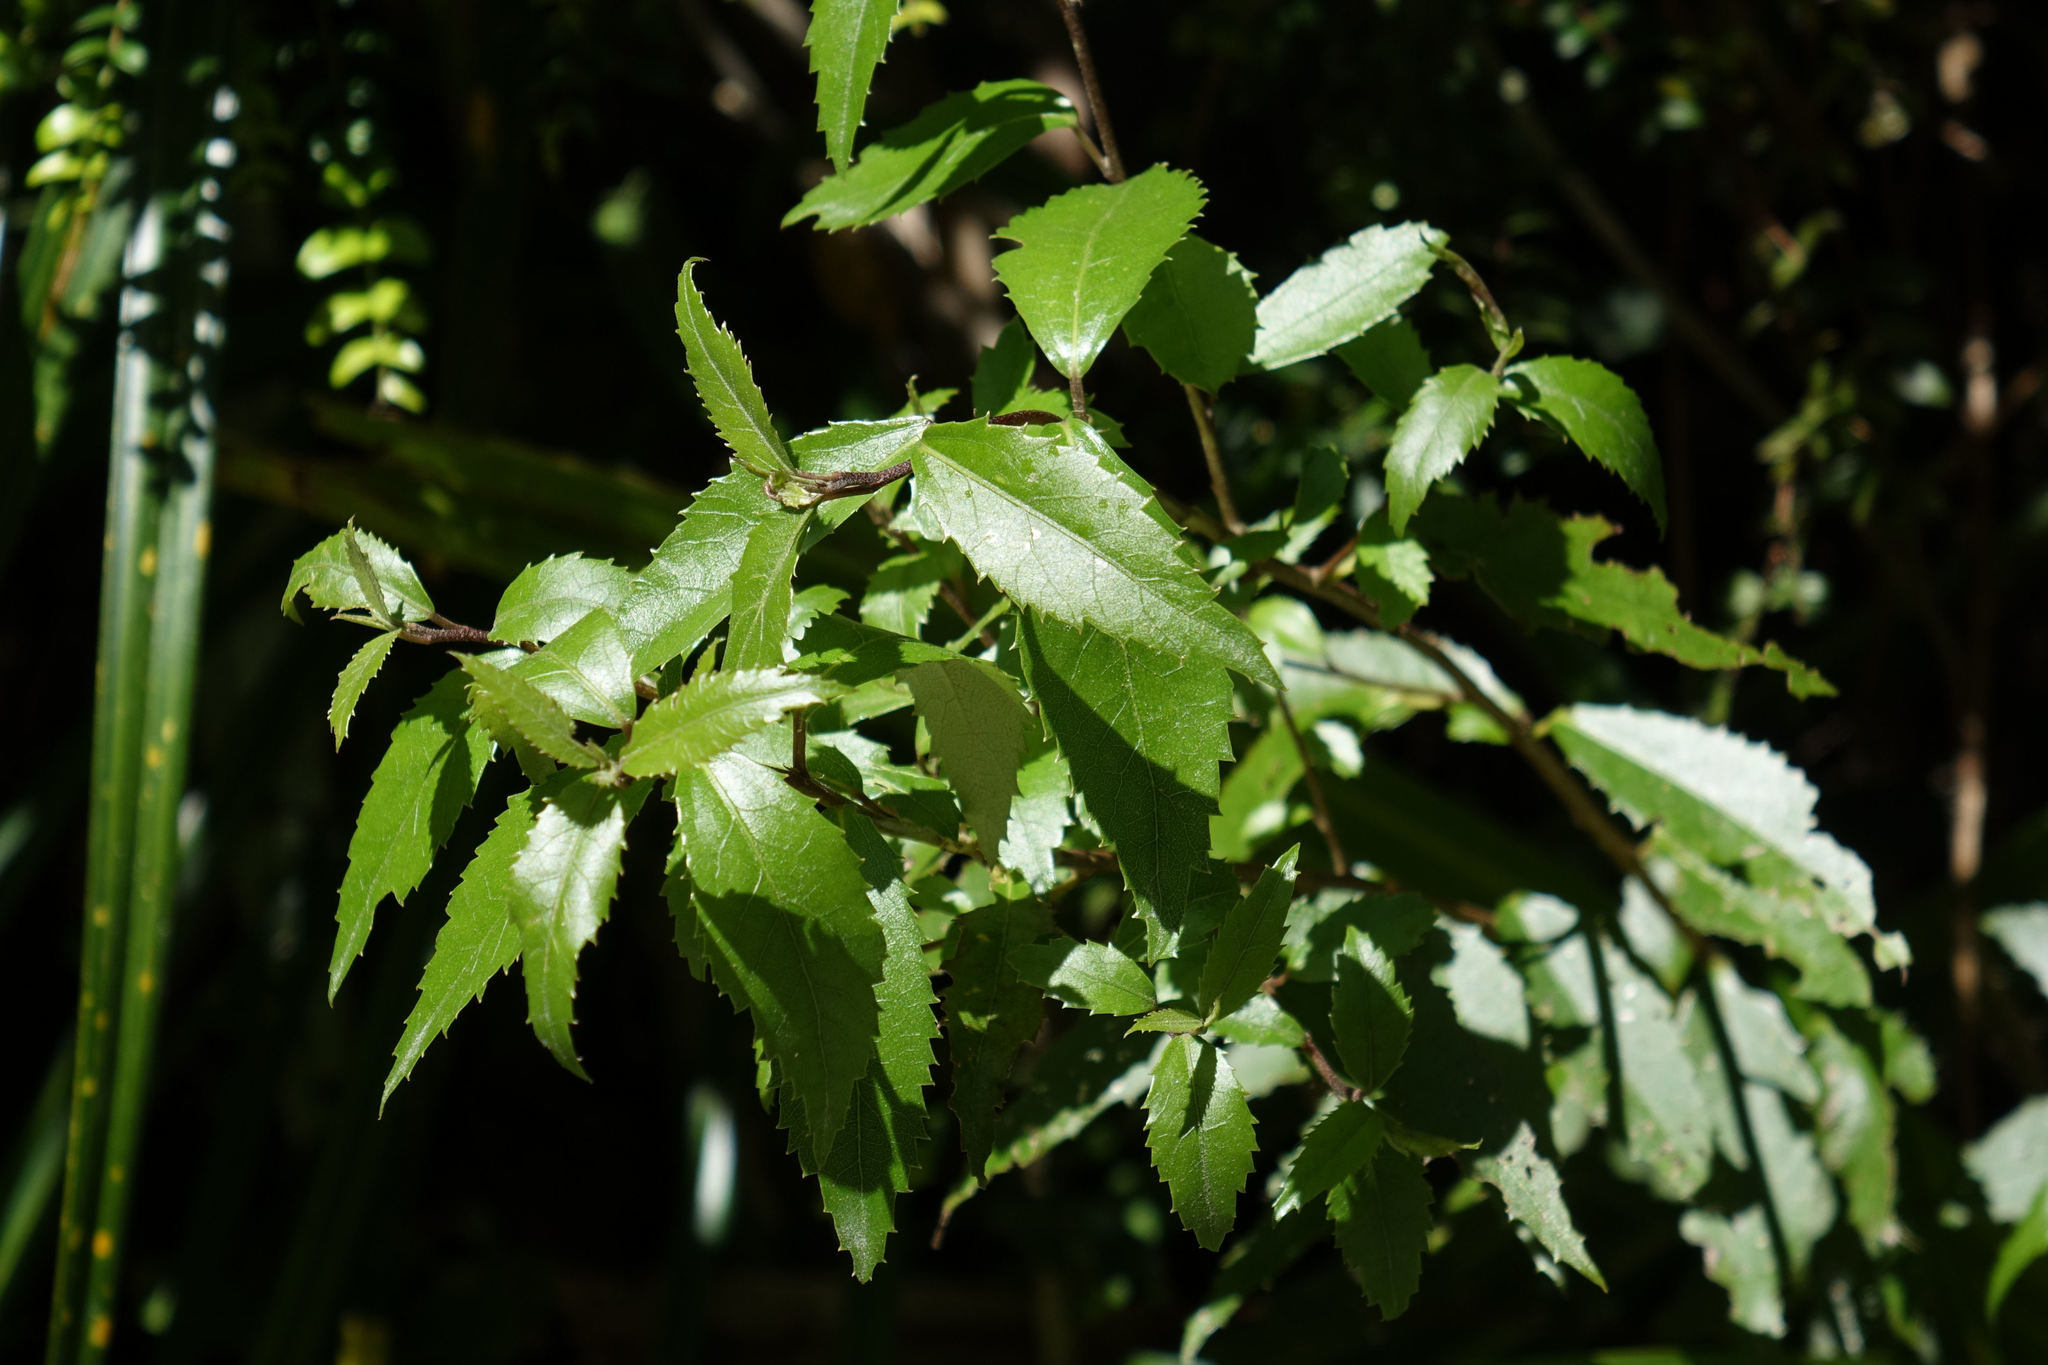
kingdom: Plantae
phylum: Tracheophyta
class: Magnoliopsida
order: Malvales
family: Malvaceae
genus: Hoheria
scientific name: Hoheria ovata
